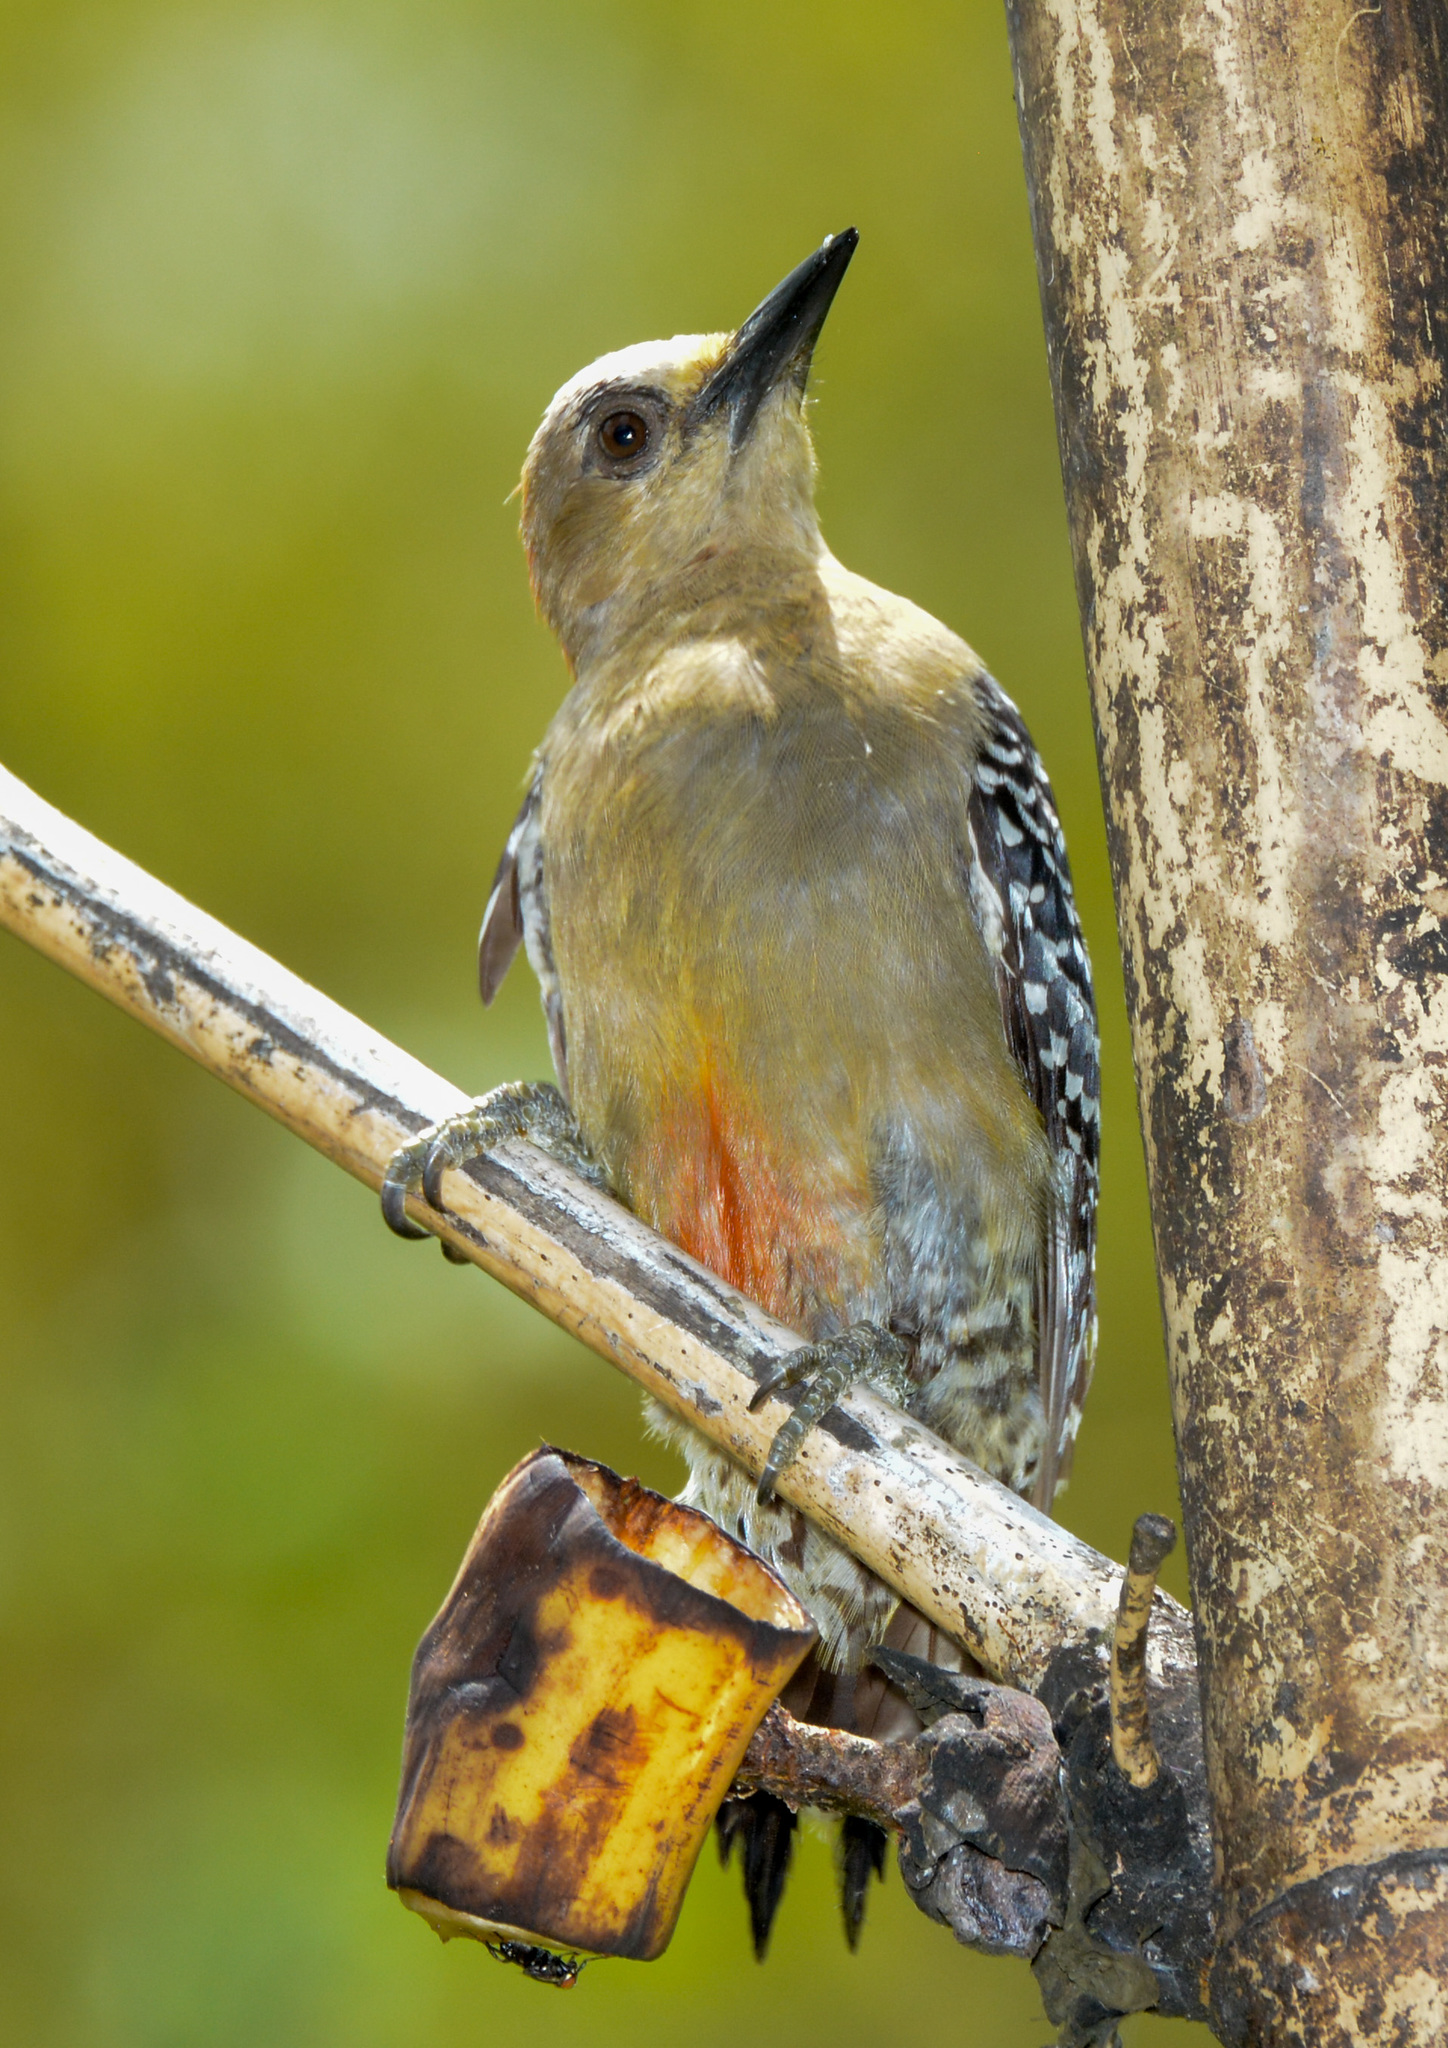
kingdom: Animalia
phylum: Chordata
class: Aves
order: Piciformes
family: Picidae
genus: Melanerpes
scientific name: Melanerpes rubricapillus
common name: Red-crowned woodpecker
